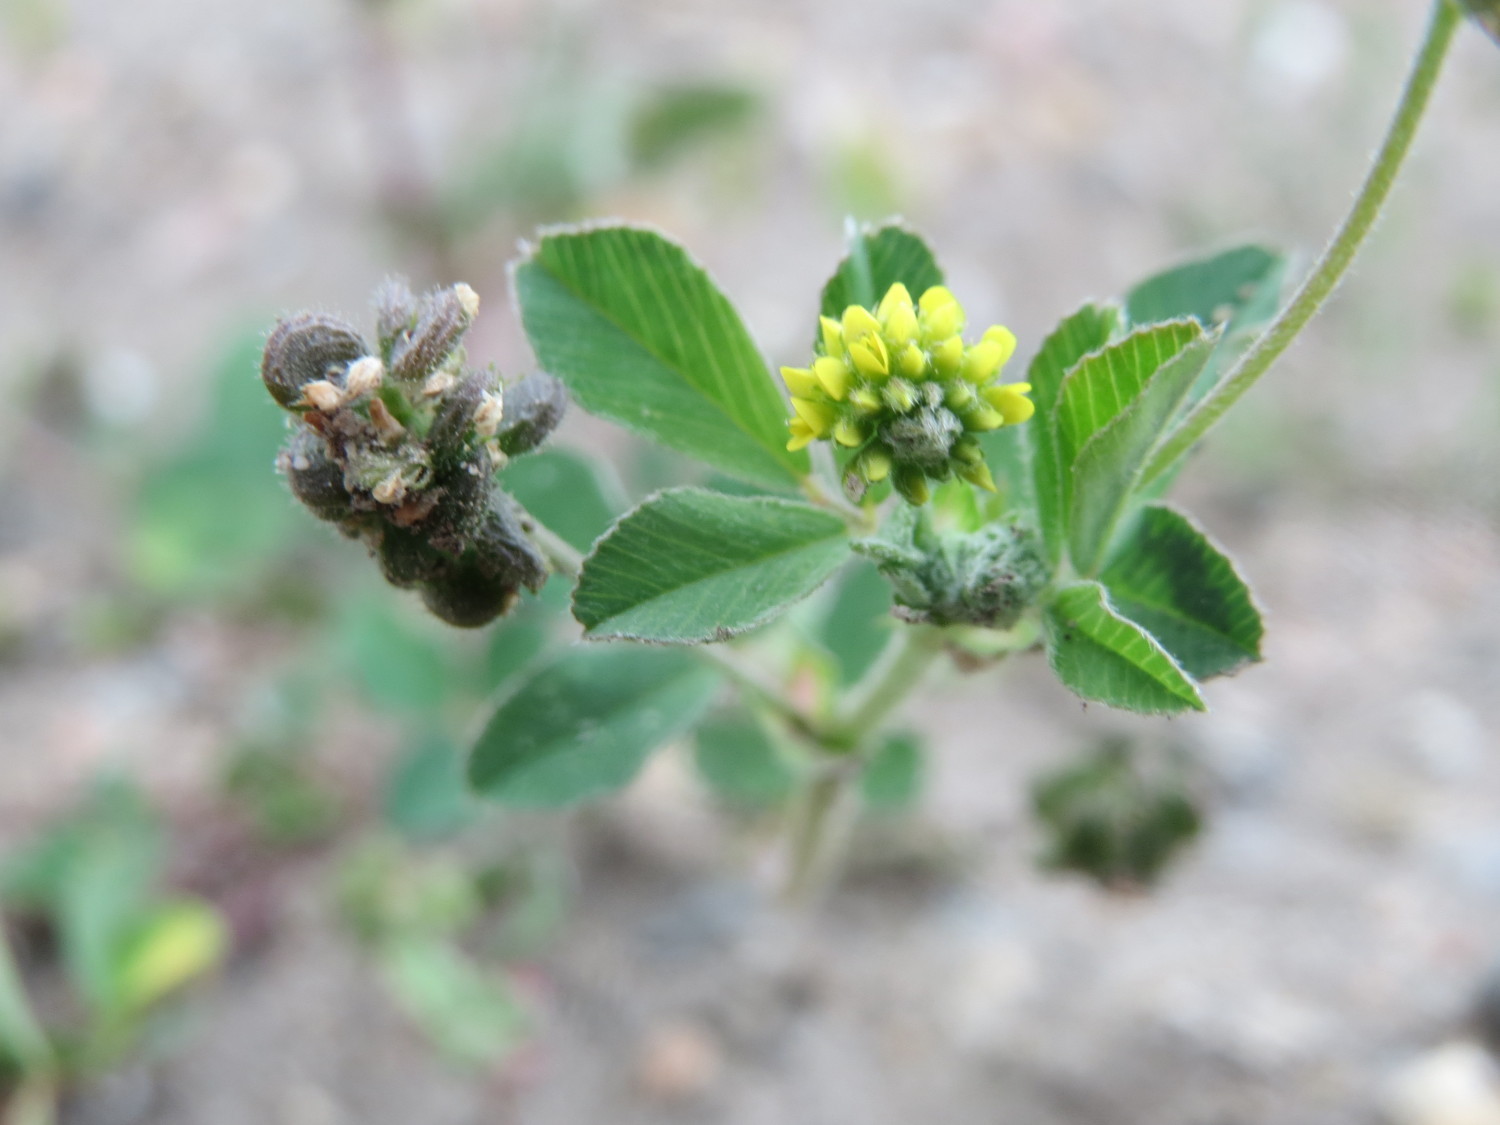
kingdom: Plantae
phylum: Tracheophyta
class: Magnoliopsida
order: Fabales
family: Fabaceae
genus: Medicago
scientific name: Medicago lupulina
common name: Black medick
